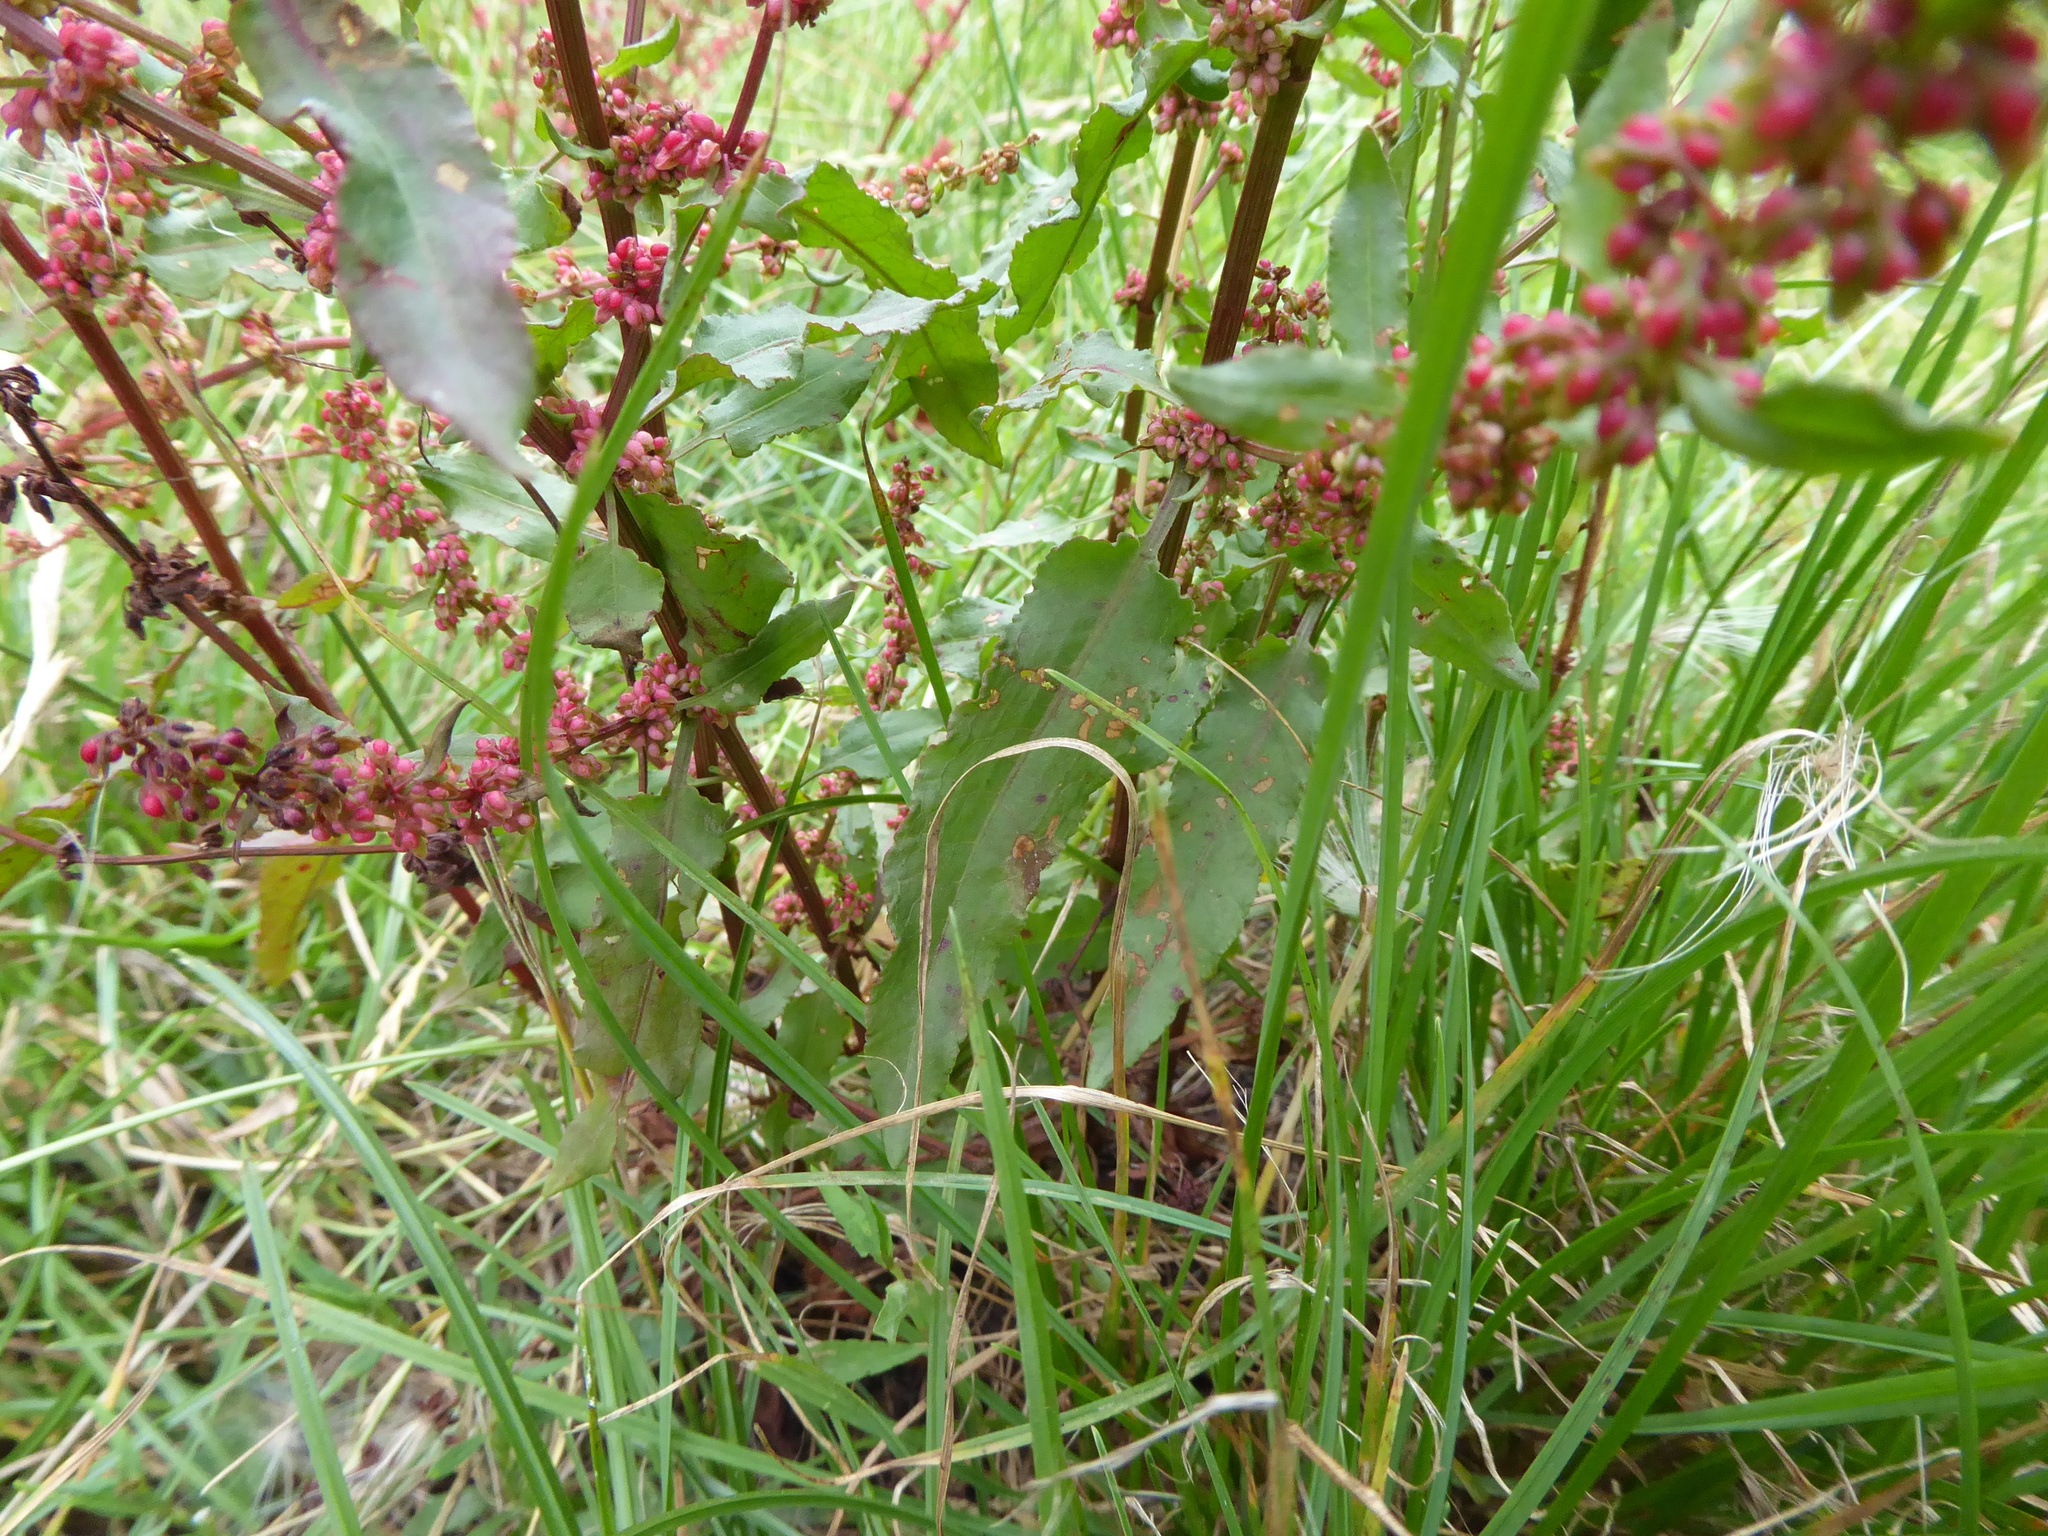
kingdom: Plantae
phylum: Tracheophyta
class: Magnoliopsida
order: Caryophyllales
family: Polygonaceae
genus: Rumex
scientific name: Rumex conglomeratus
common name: Clustered dock
